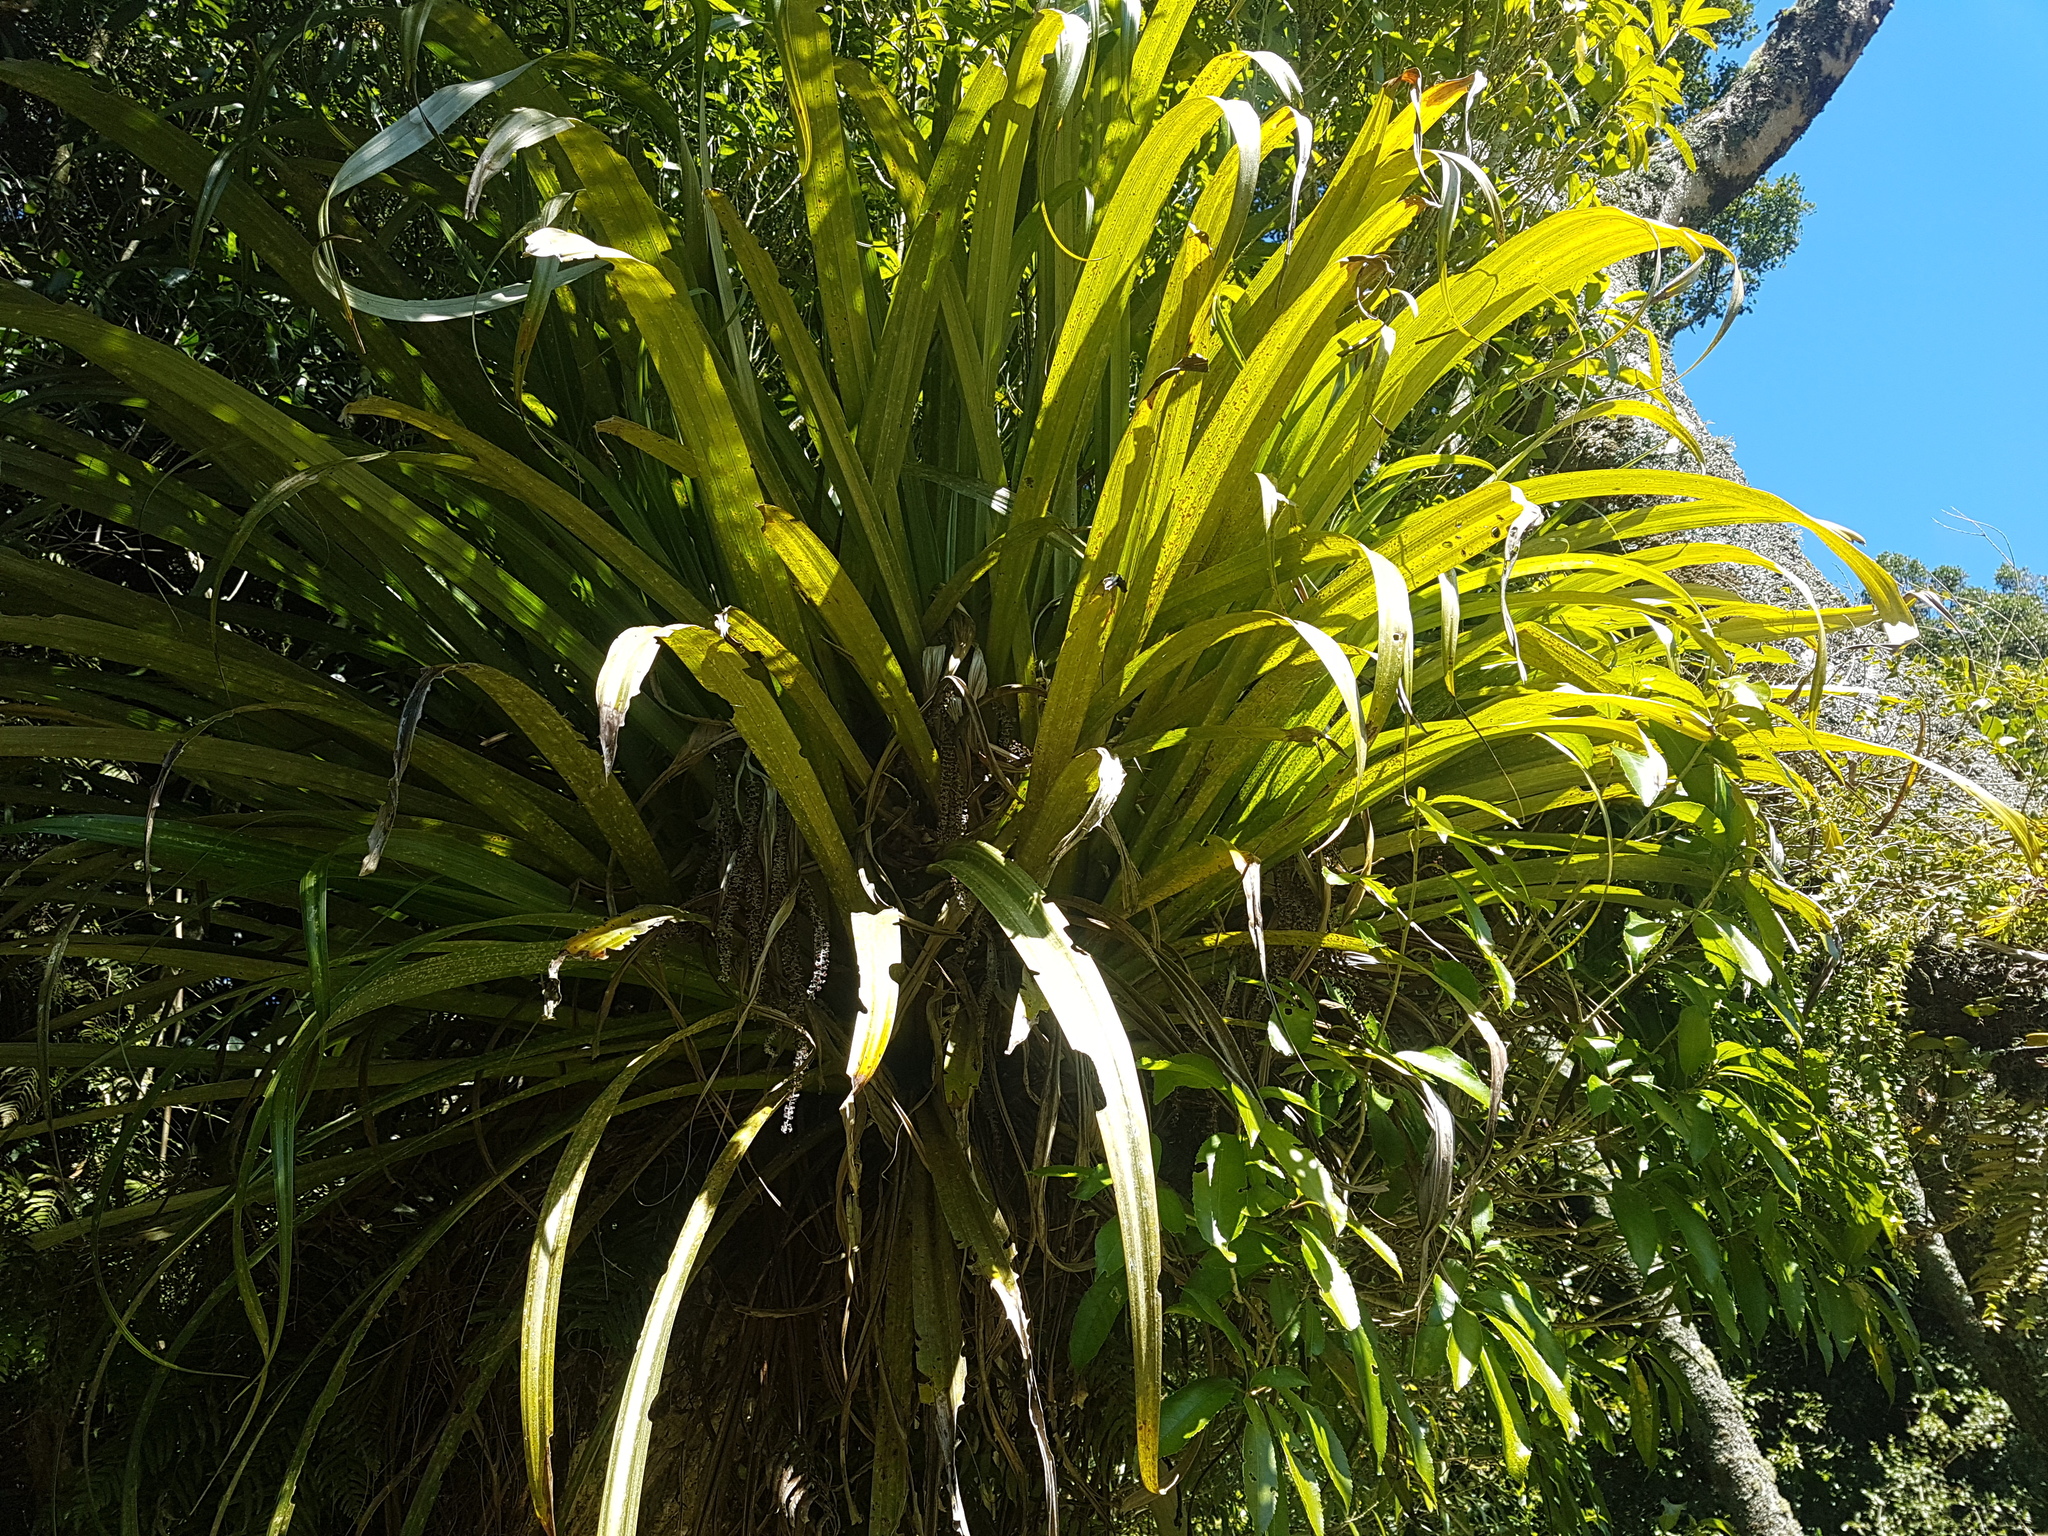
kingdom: Plantae
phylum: Tracheophyta
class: Liliopsida
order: Asparagales
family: Asteliaceae
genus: Astelia
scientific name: Astelia hastata
